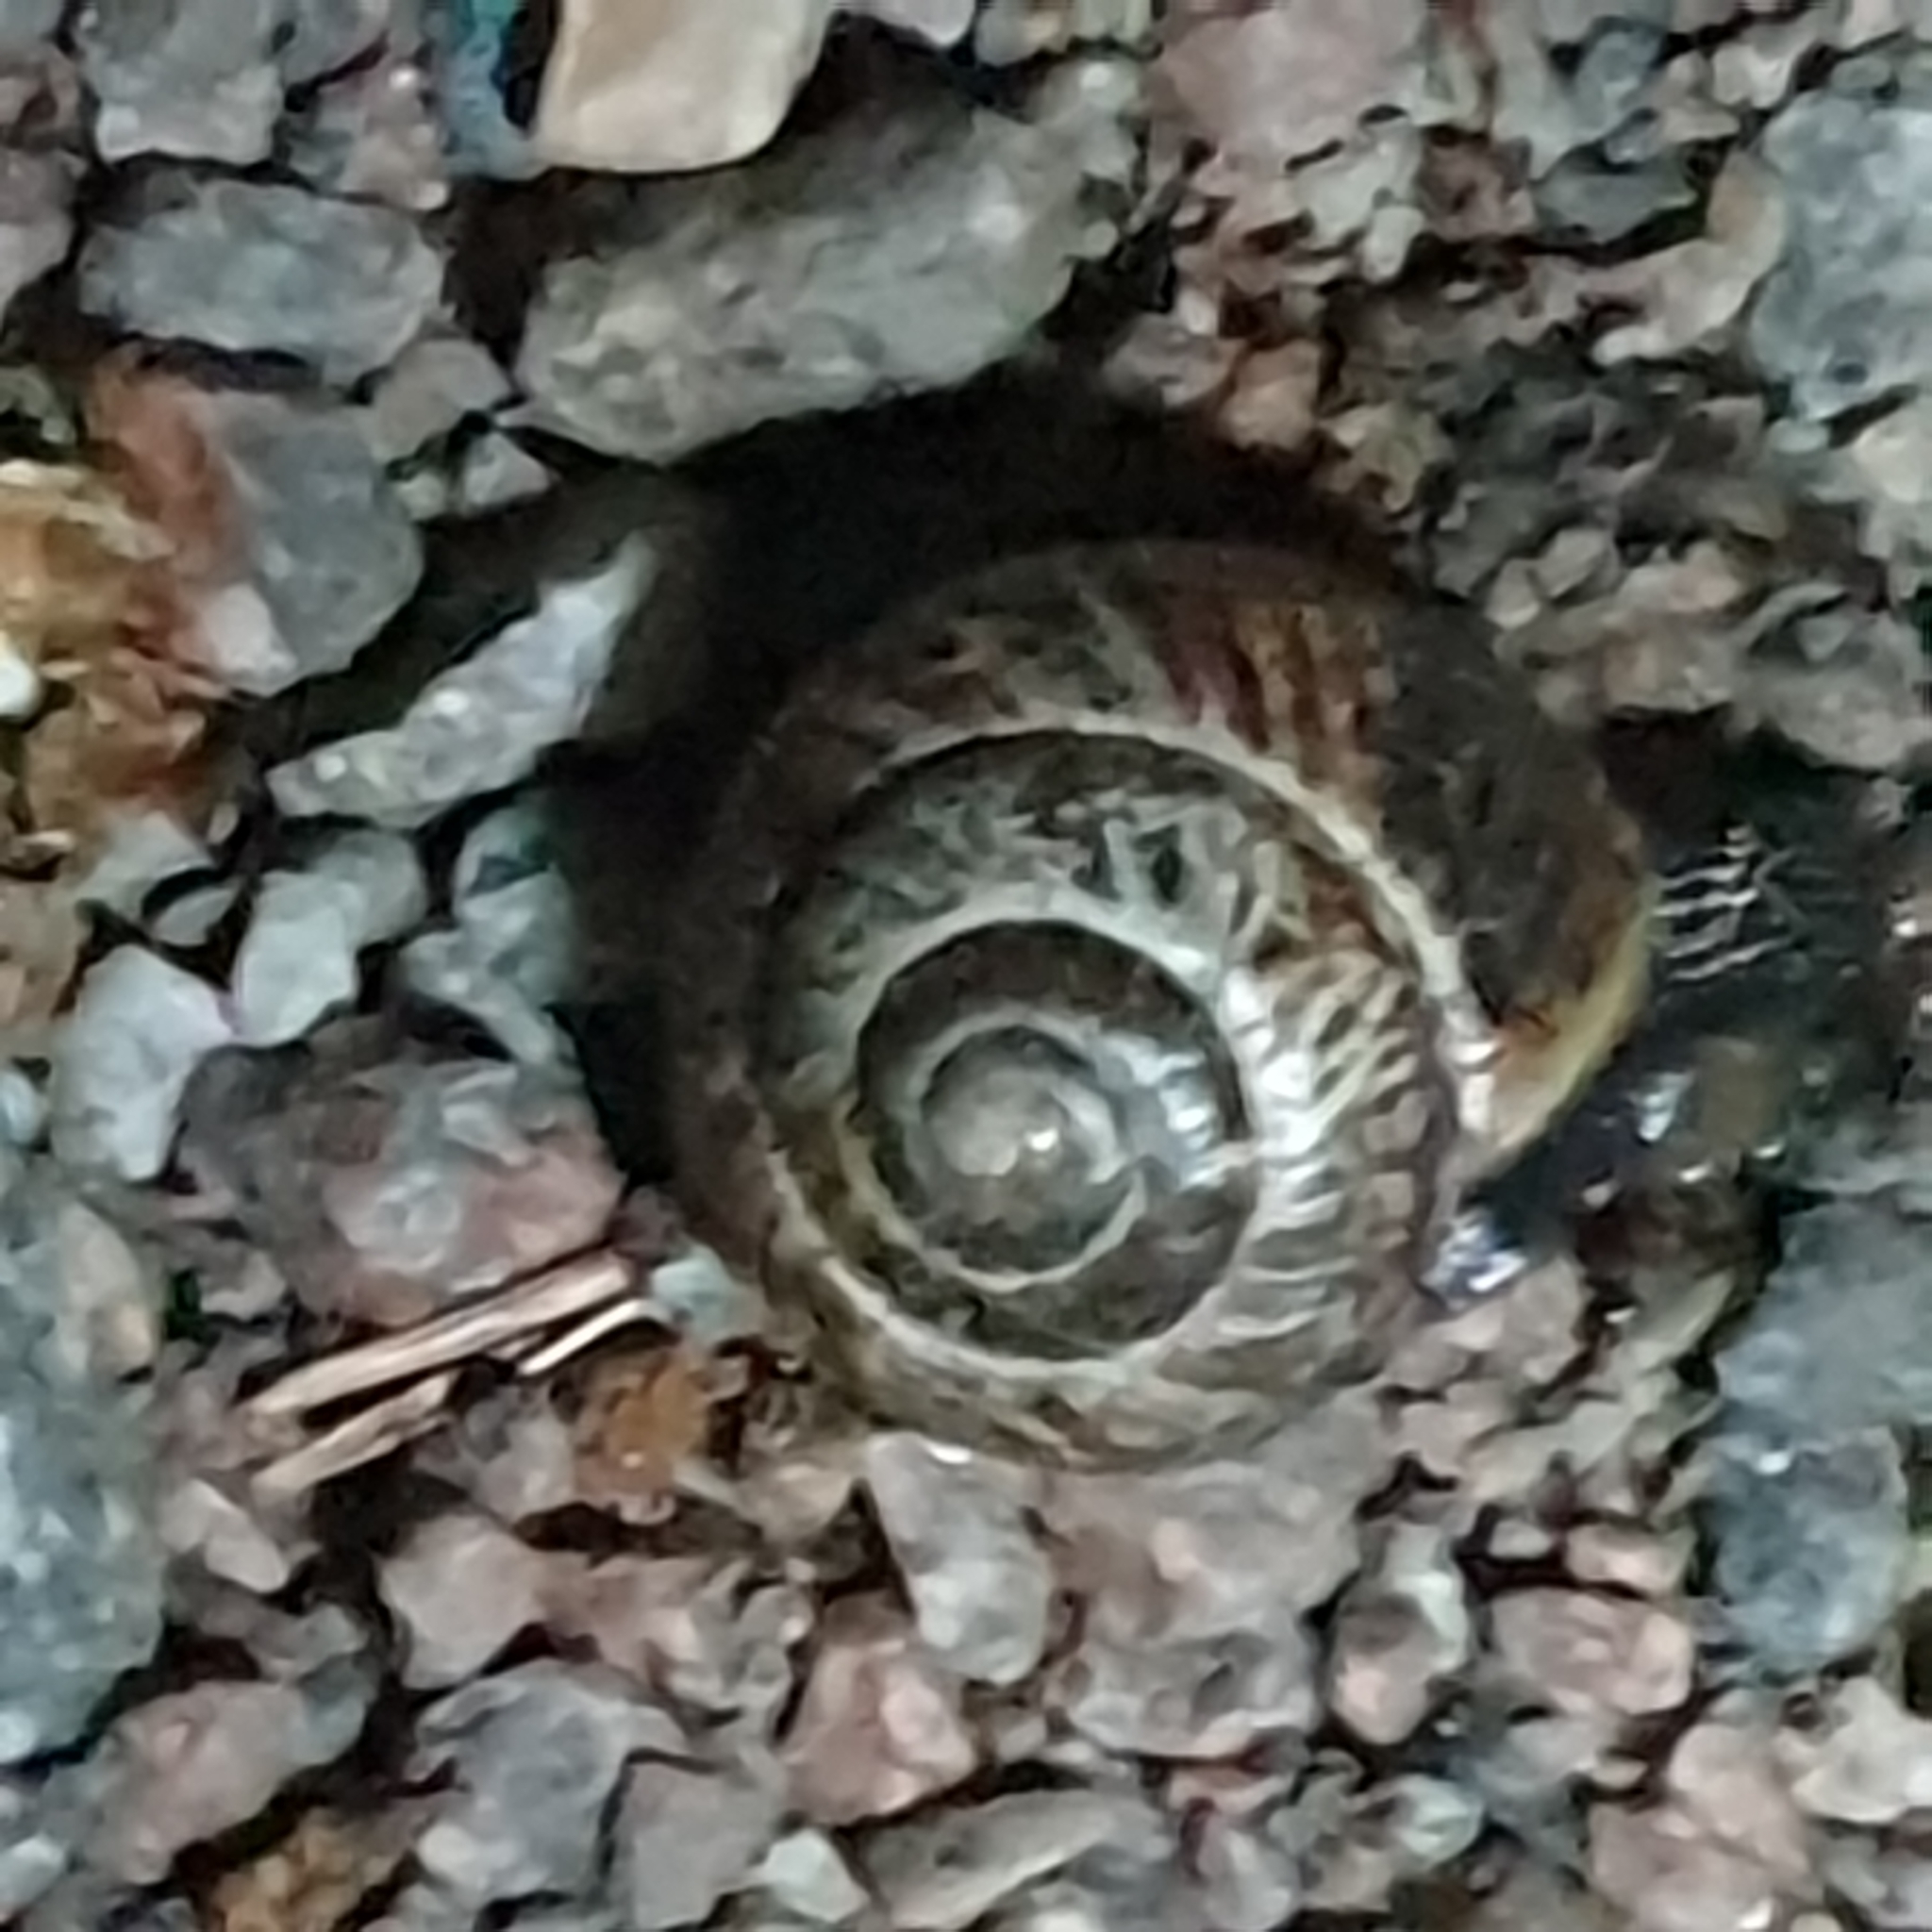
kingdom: Animalia
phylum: Mollusca
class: Gastropoda
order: Stylommatophora
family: Helicidae
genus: Arianta
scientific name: Arianta arbustorum
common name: Copse snail
